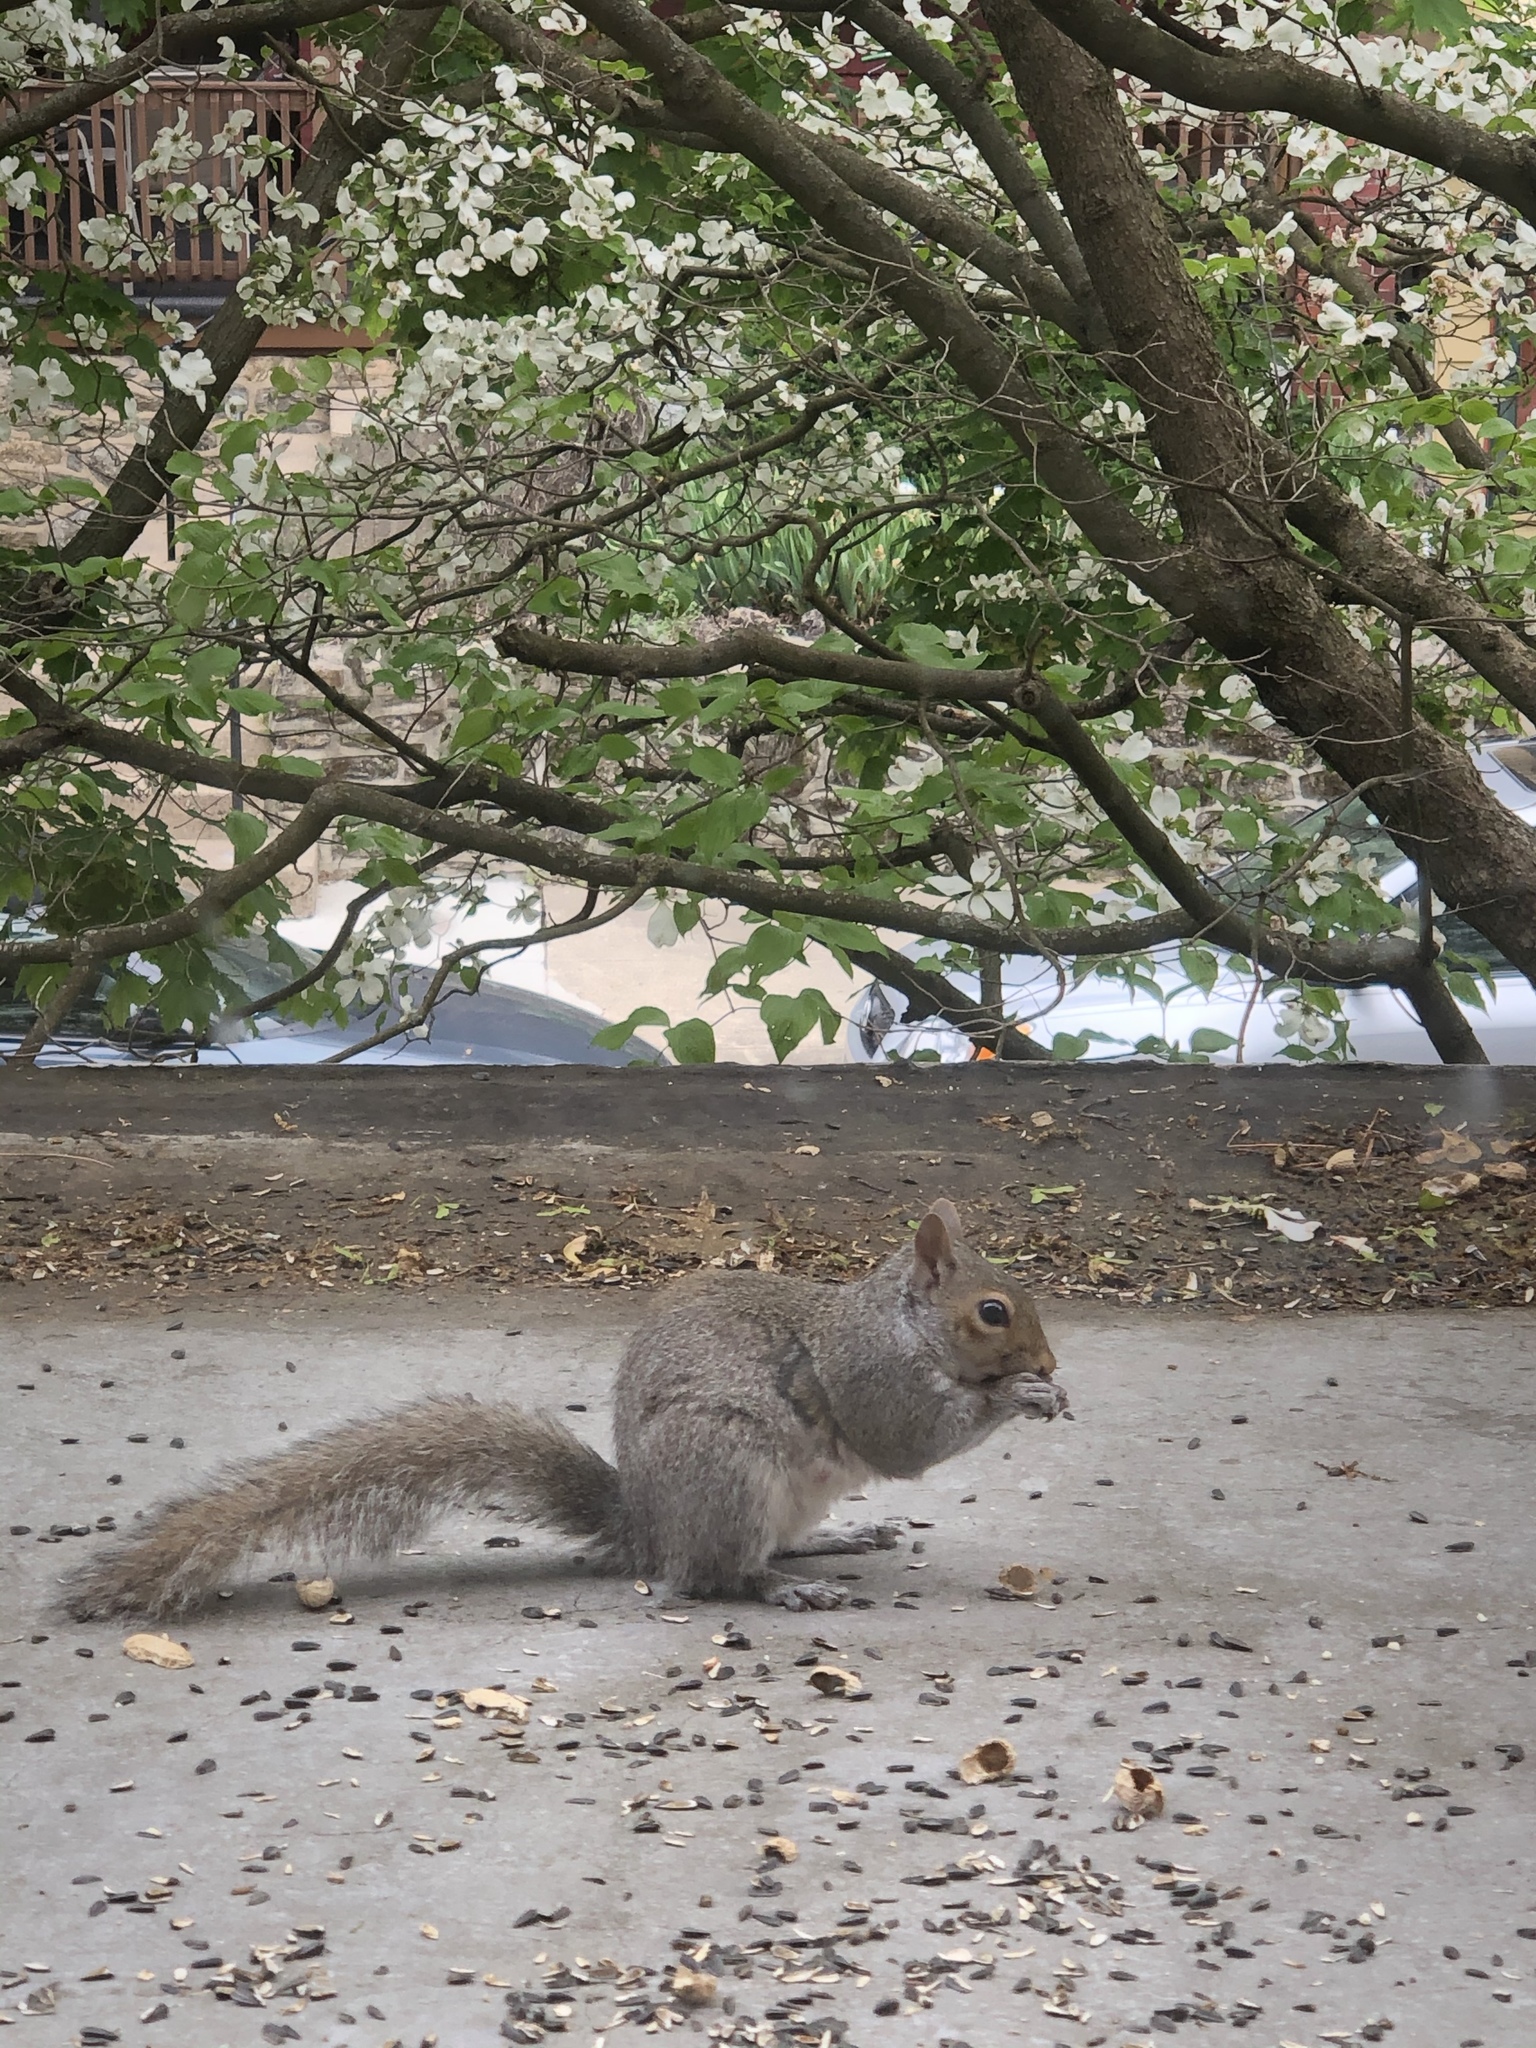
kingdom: Animalia
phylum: Chordata
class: Mammalia
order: Rodentia
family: Sciuridae
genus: Sciurus
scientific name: Sciurus carolinensis
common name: Eastern gray squirrel
